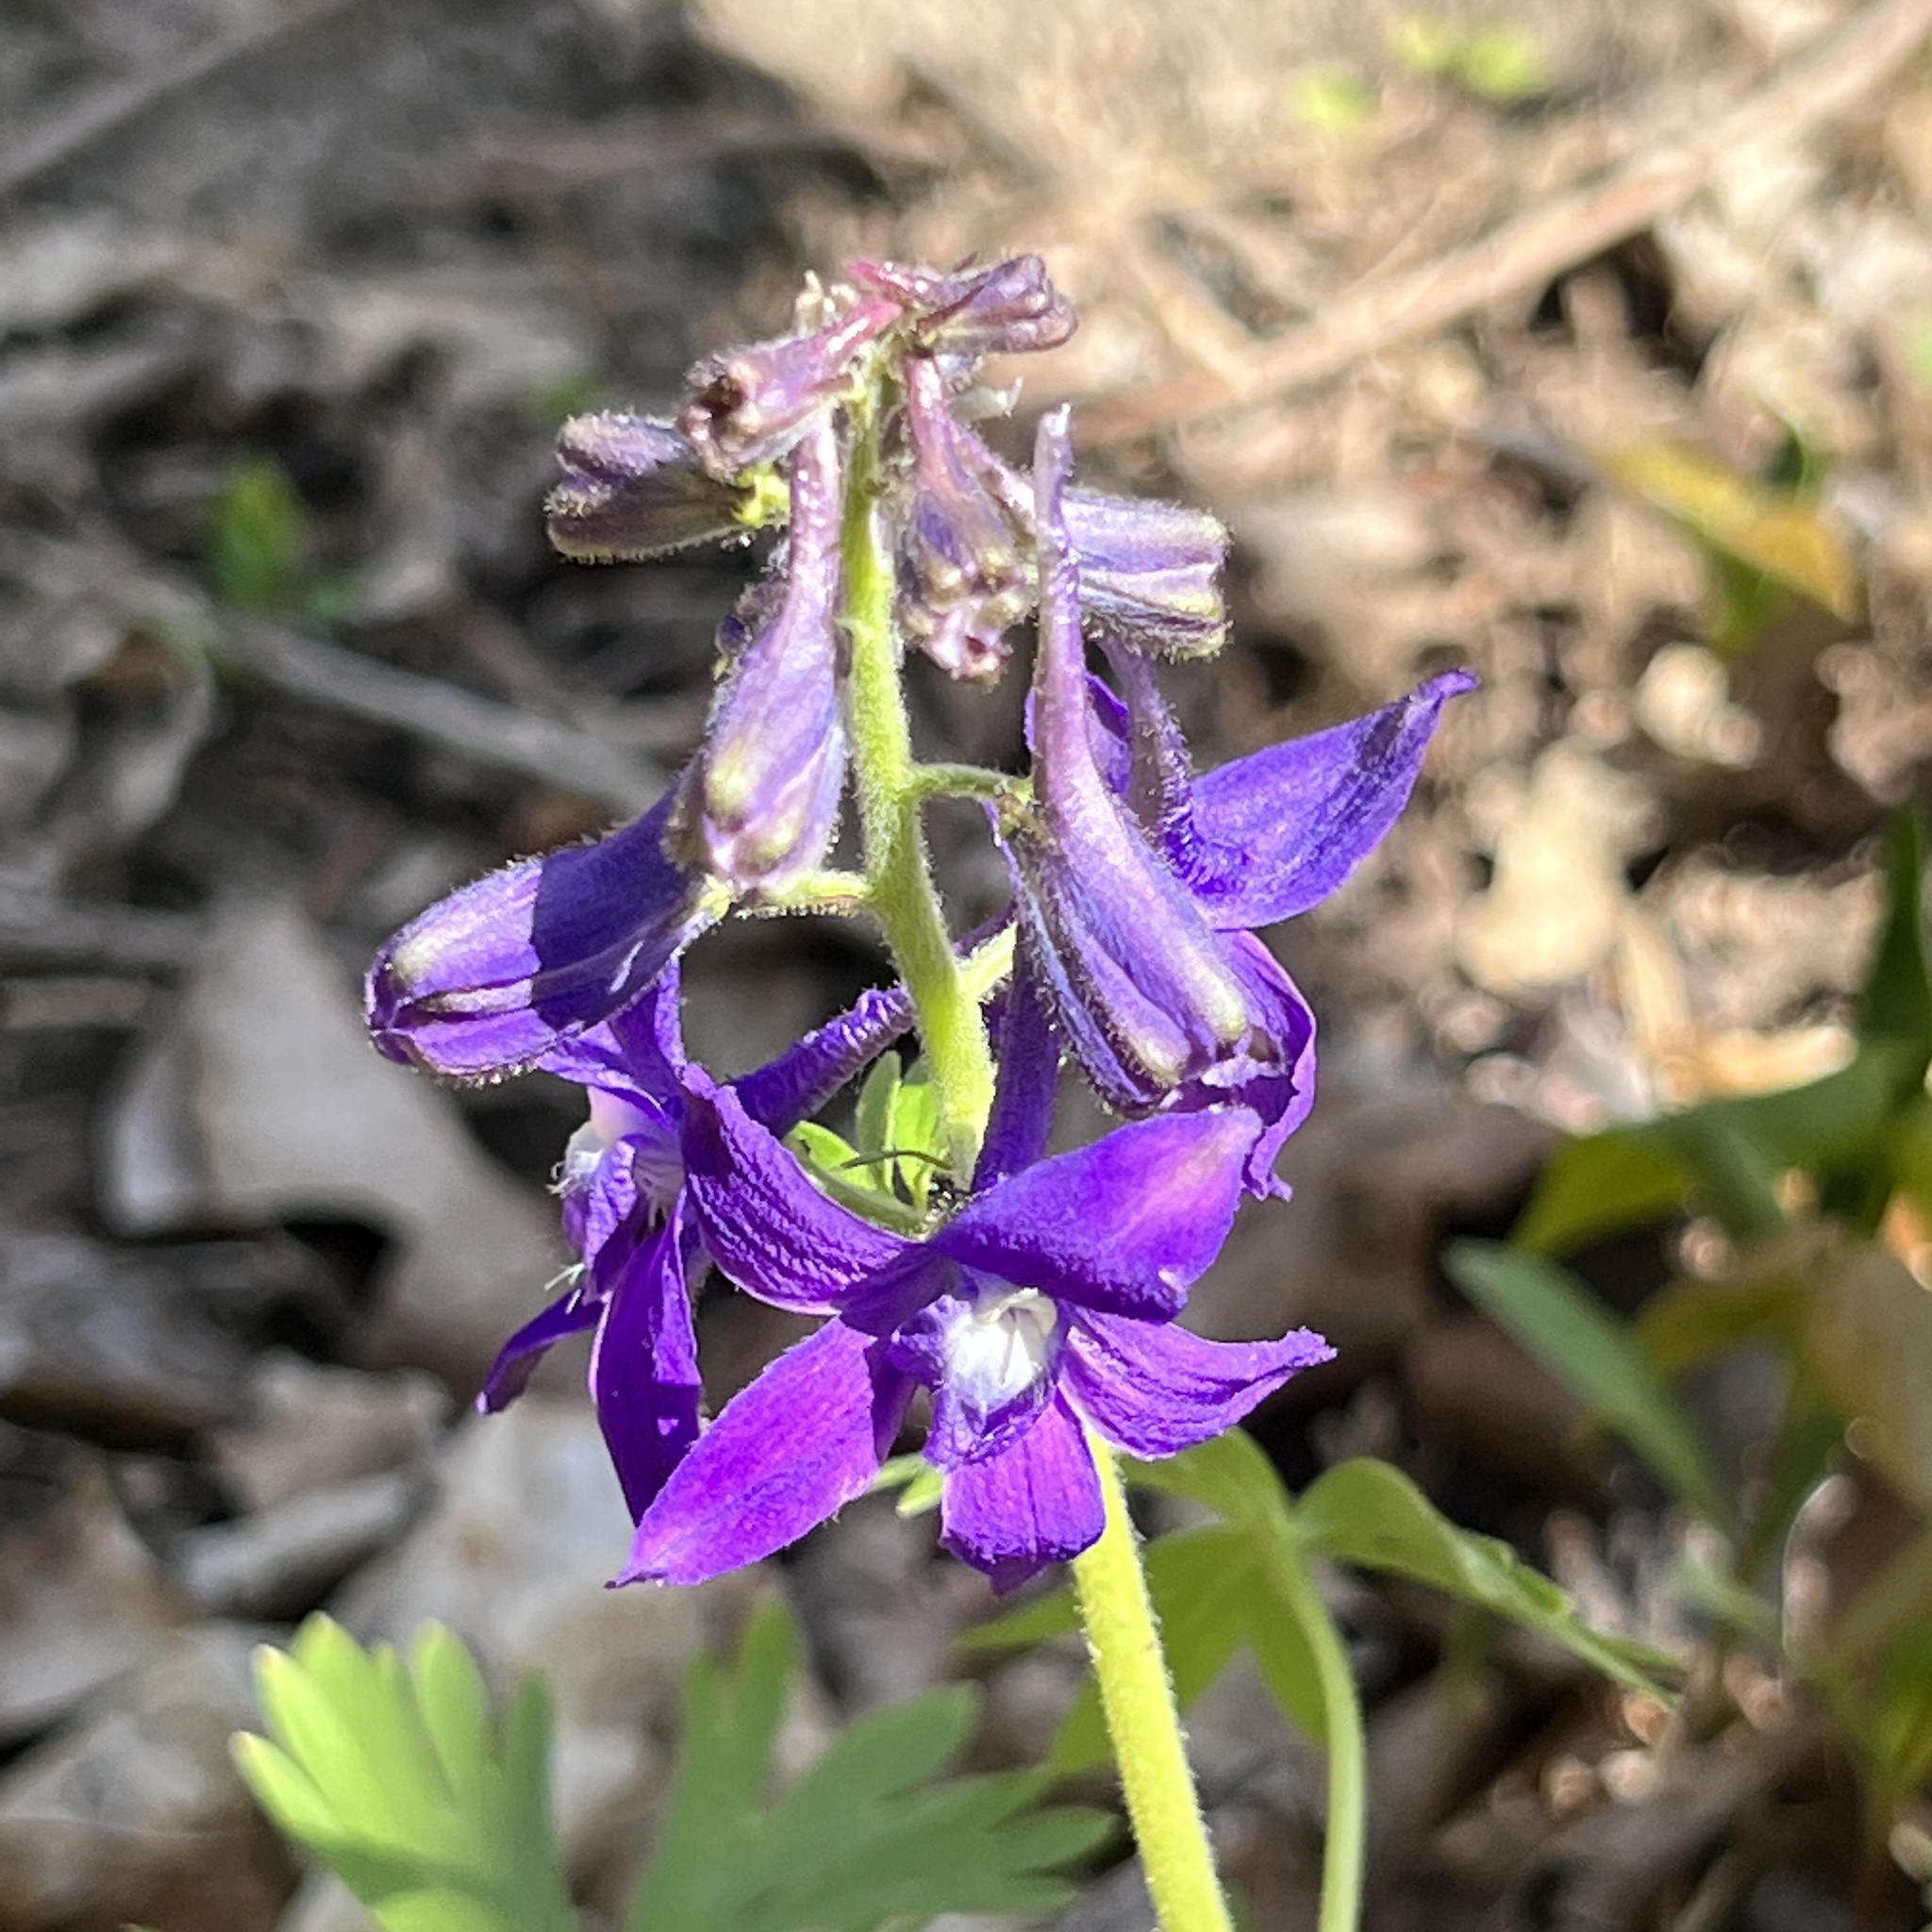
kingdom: Plantae
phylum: Tracheophyta
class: Magnoliopsida
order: Ranunculales
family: Ranunculaceae
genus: Delphinium
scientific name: Delphinium tricorne
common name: Dwarf larkspur
